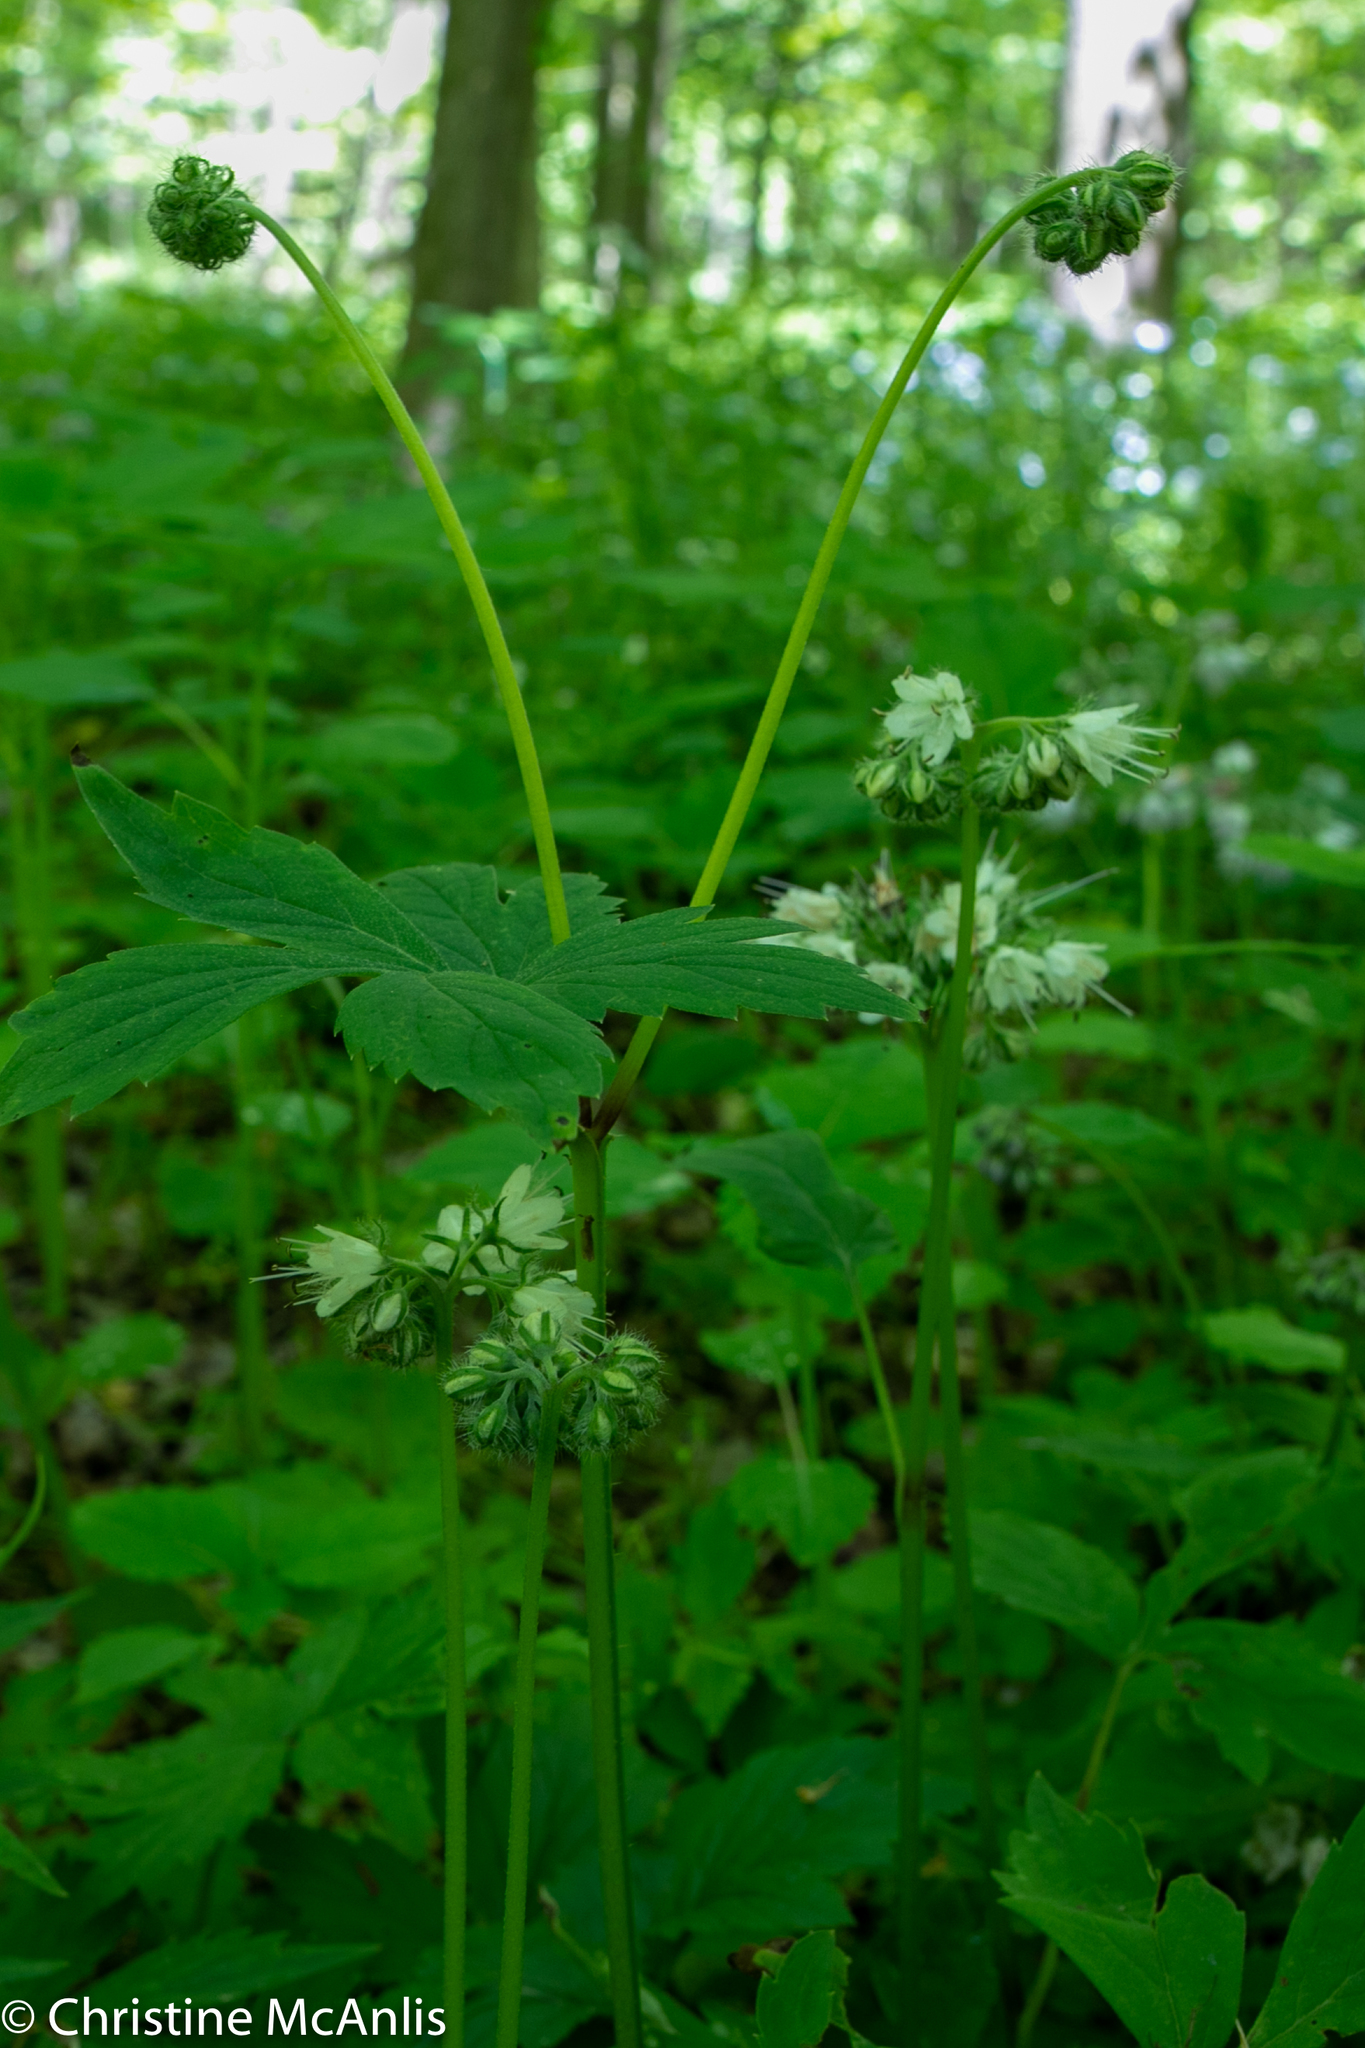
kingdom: Plantae
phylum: Tracheophyta
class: Magnoliopsida
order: Boraginales
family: Hydrophyllaceae
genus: Hydrophyllum
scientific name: Hydrophyllum virginianum
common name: Virginia waterleaf
